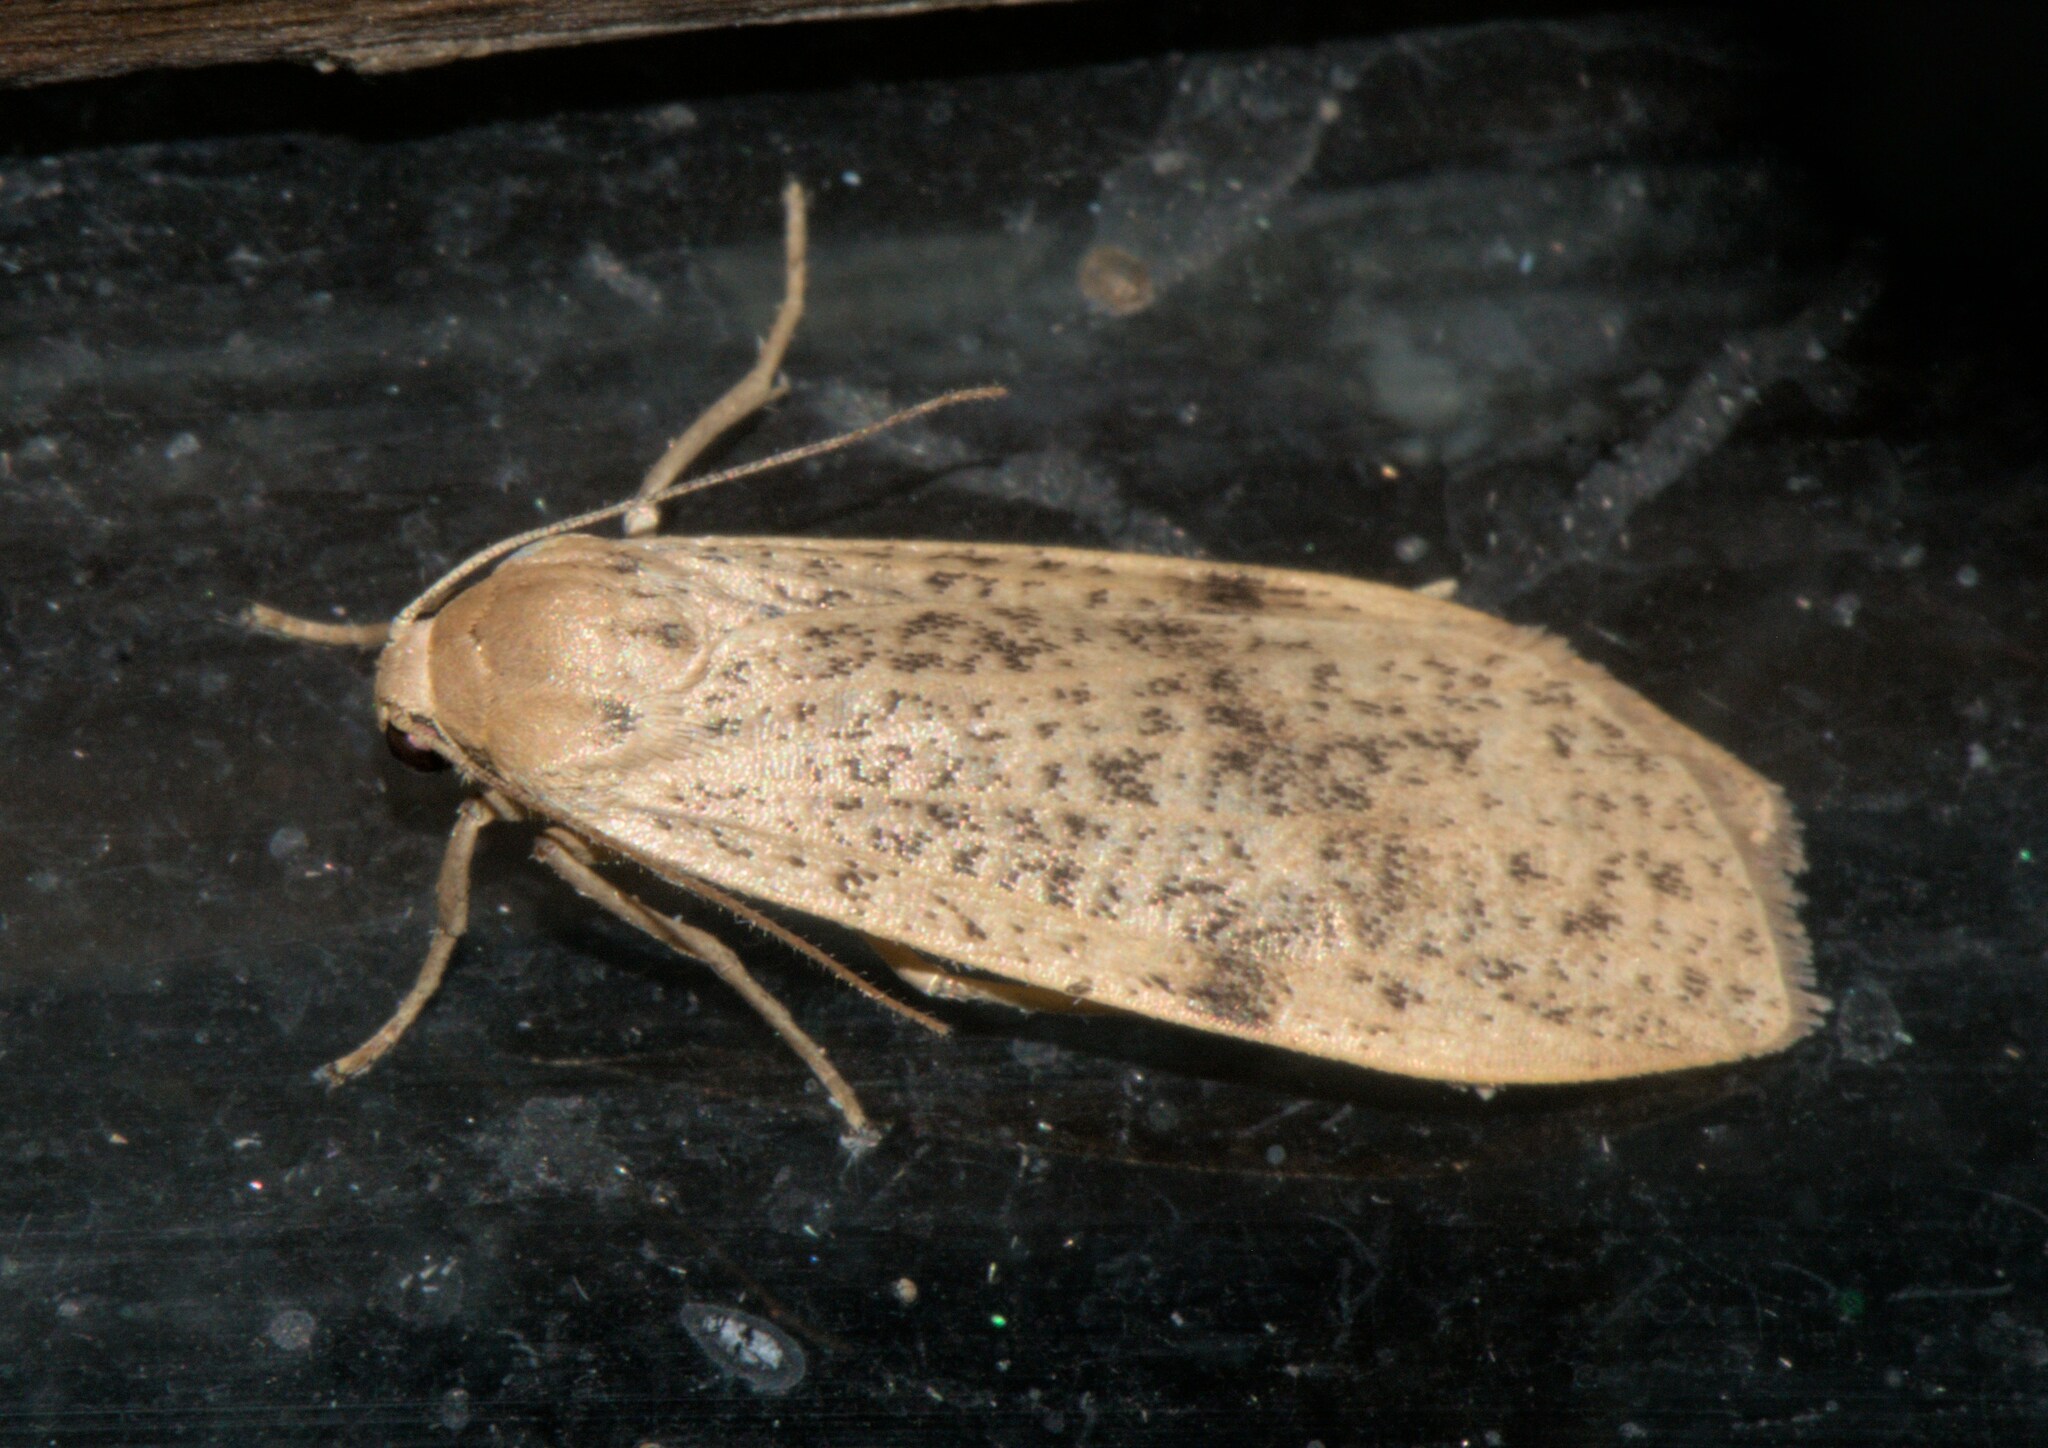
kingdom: Animalia
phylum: Arthropoda
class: Insecta
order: Lepidoptera
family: Erebidae
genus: Dolgoma
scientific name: Dolgoma reticulata
